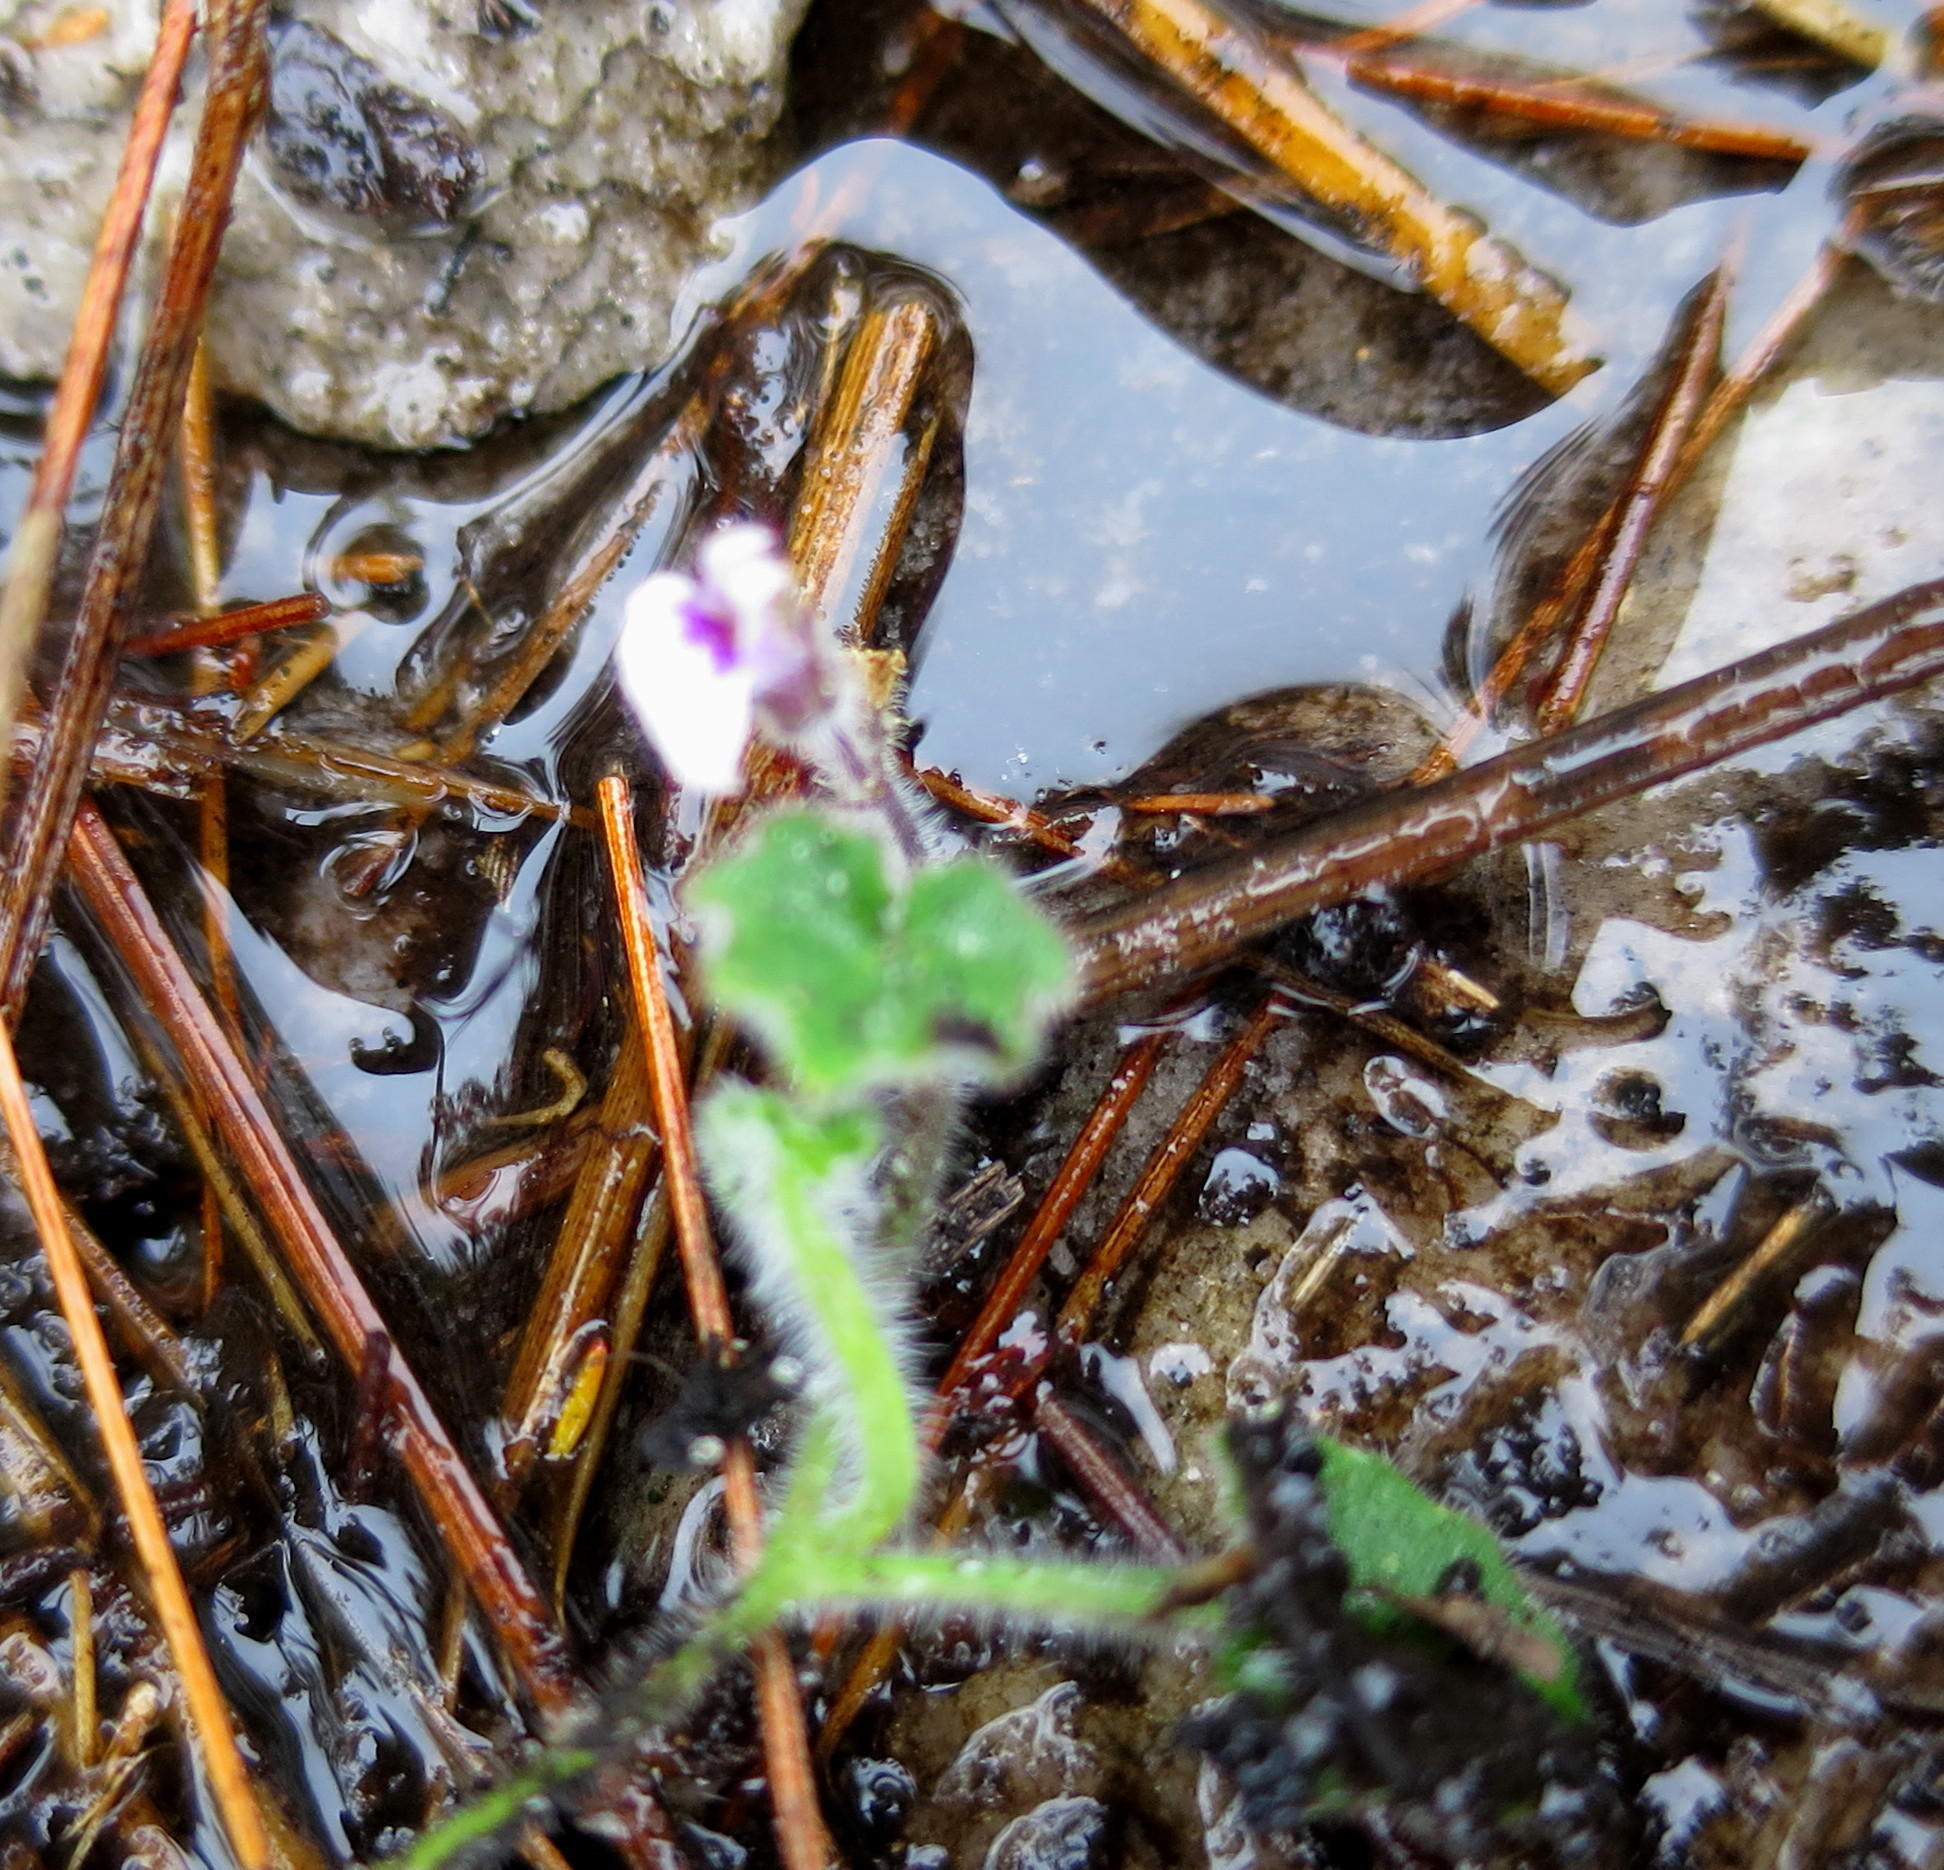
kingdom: Plantae
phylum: Tracheophyta
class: Magnoliopsida
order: Asterales
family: Campanulaceae
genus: Lobelia
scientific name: Lobelia ardisiandroides
